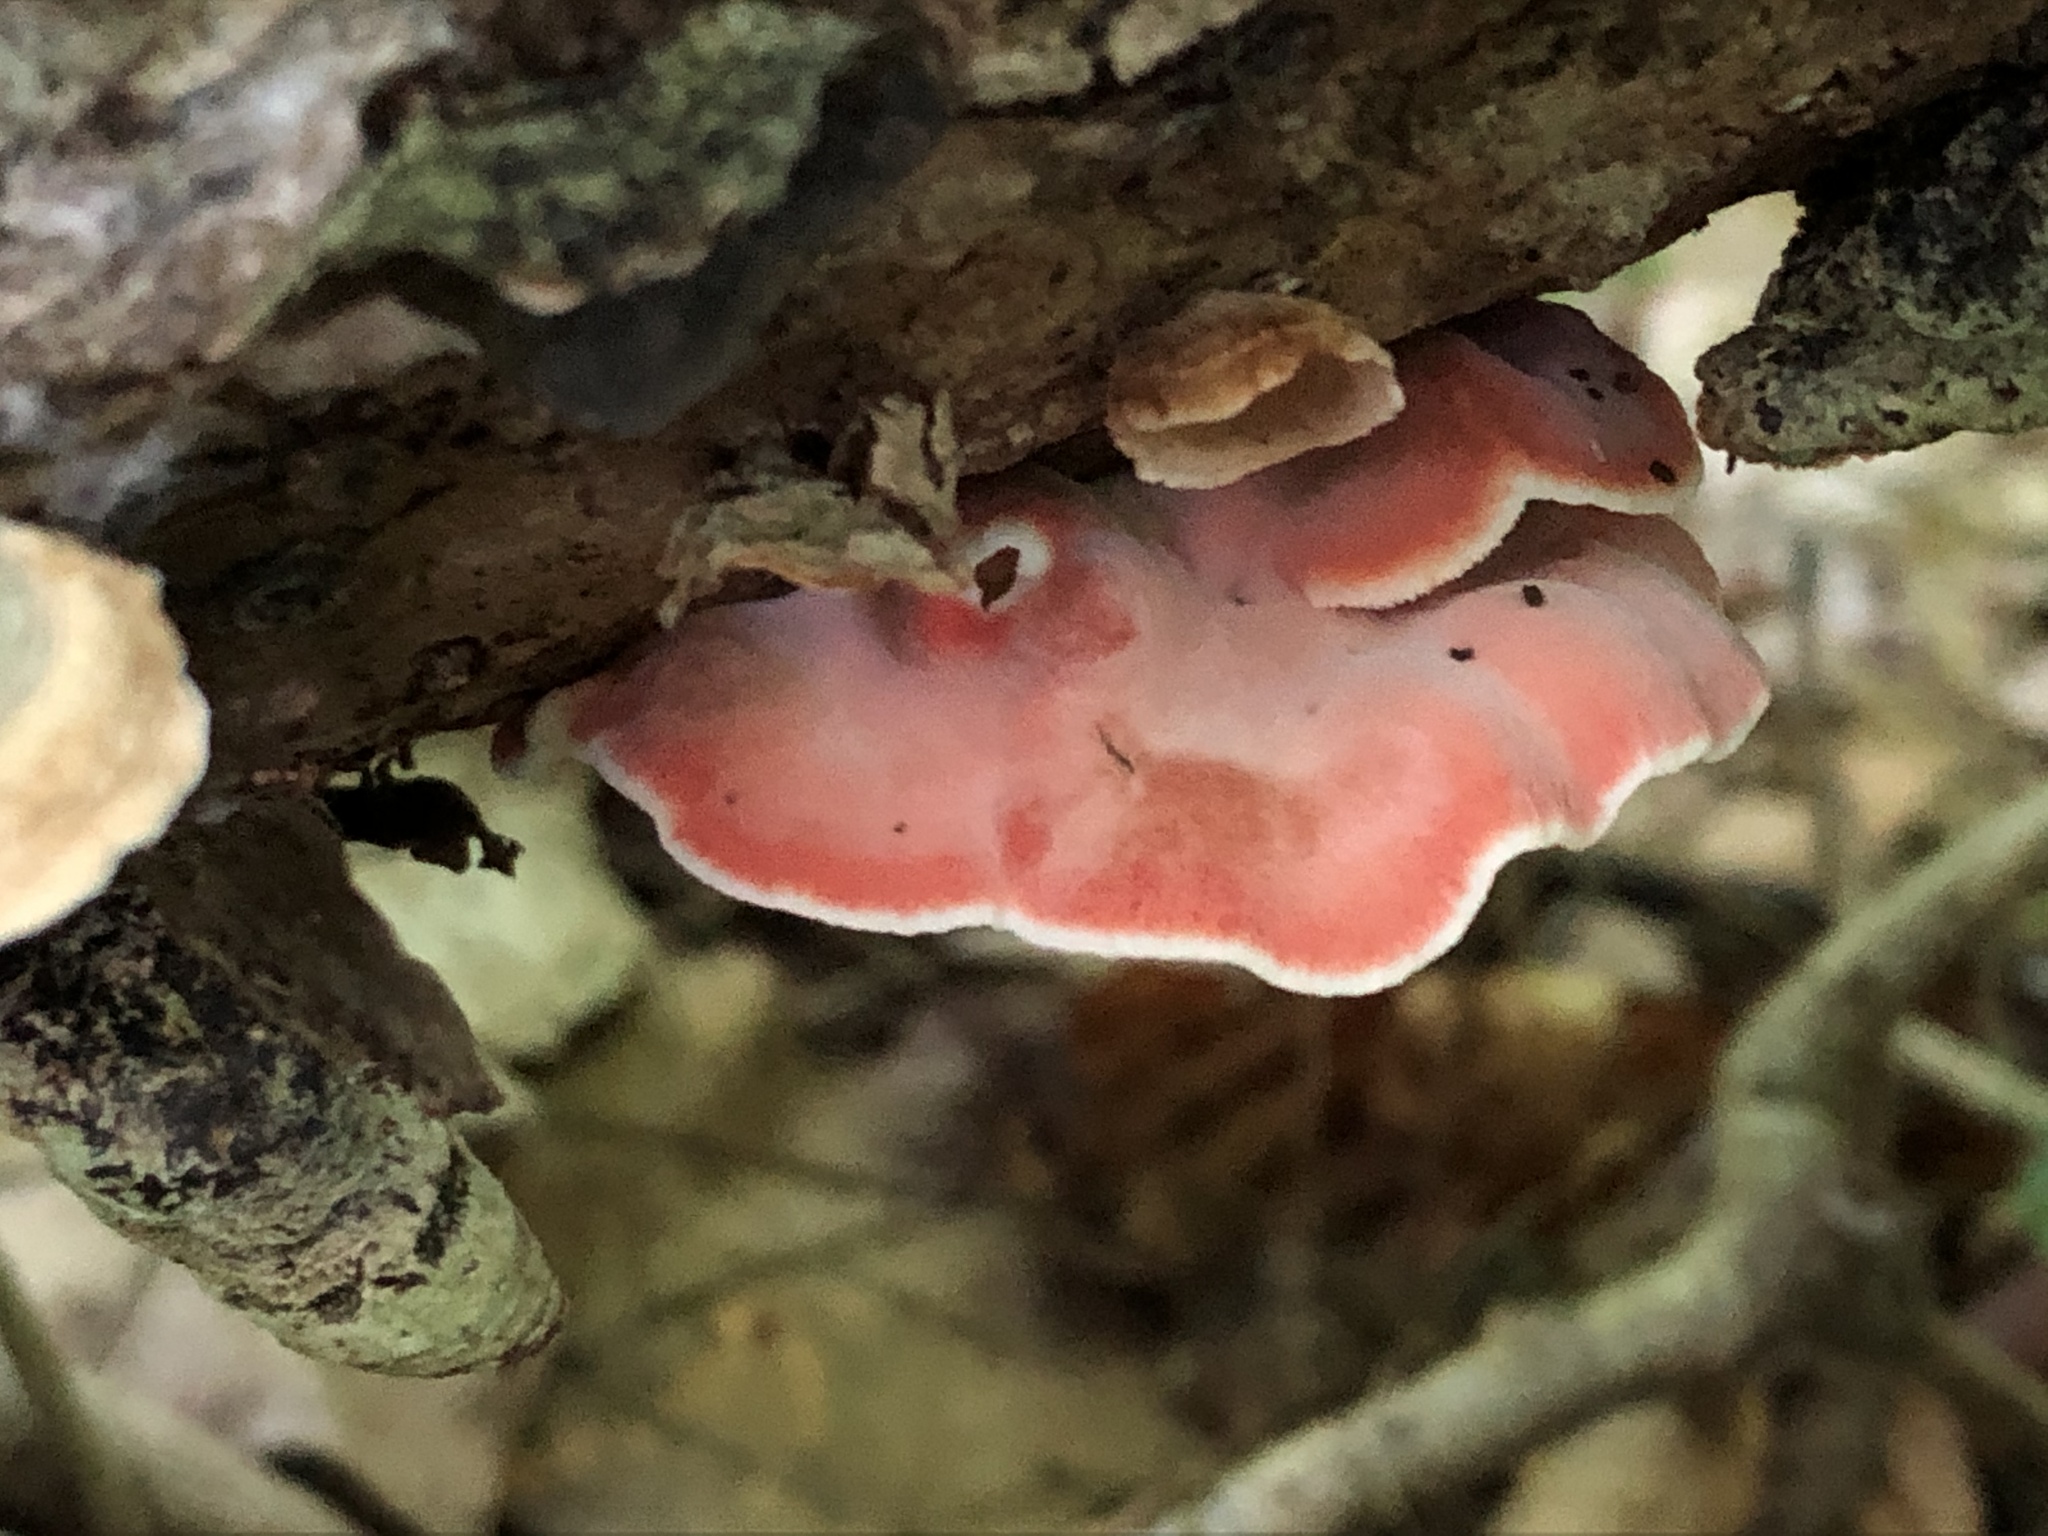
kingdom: Fungi
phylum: Basidiomycota
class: Agaricomycetes
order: Polyporales
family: Irpicaceae
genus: Byssomerulius
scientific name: Byssomerulius incarnatus
